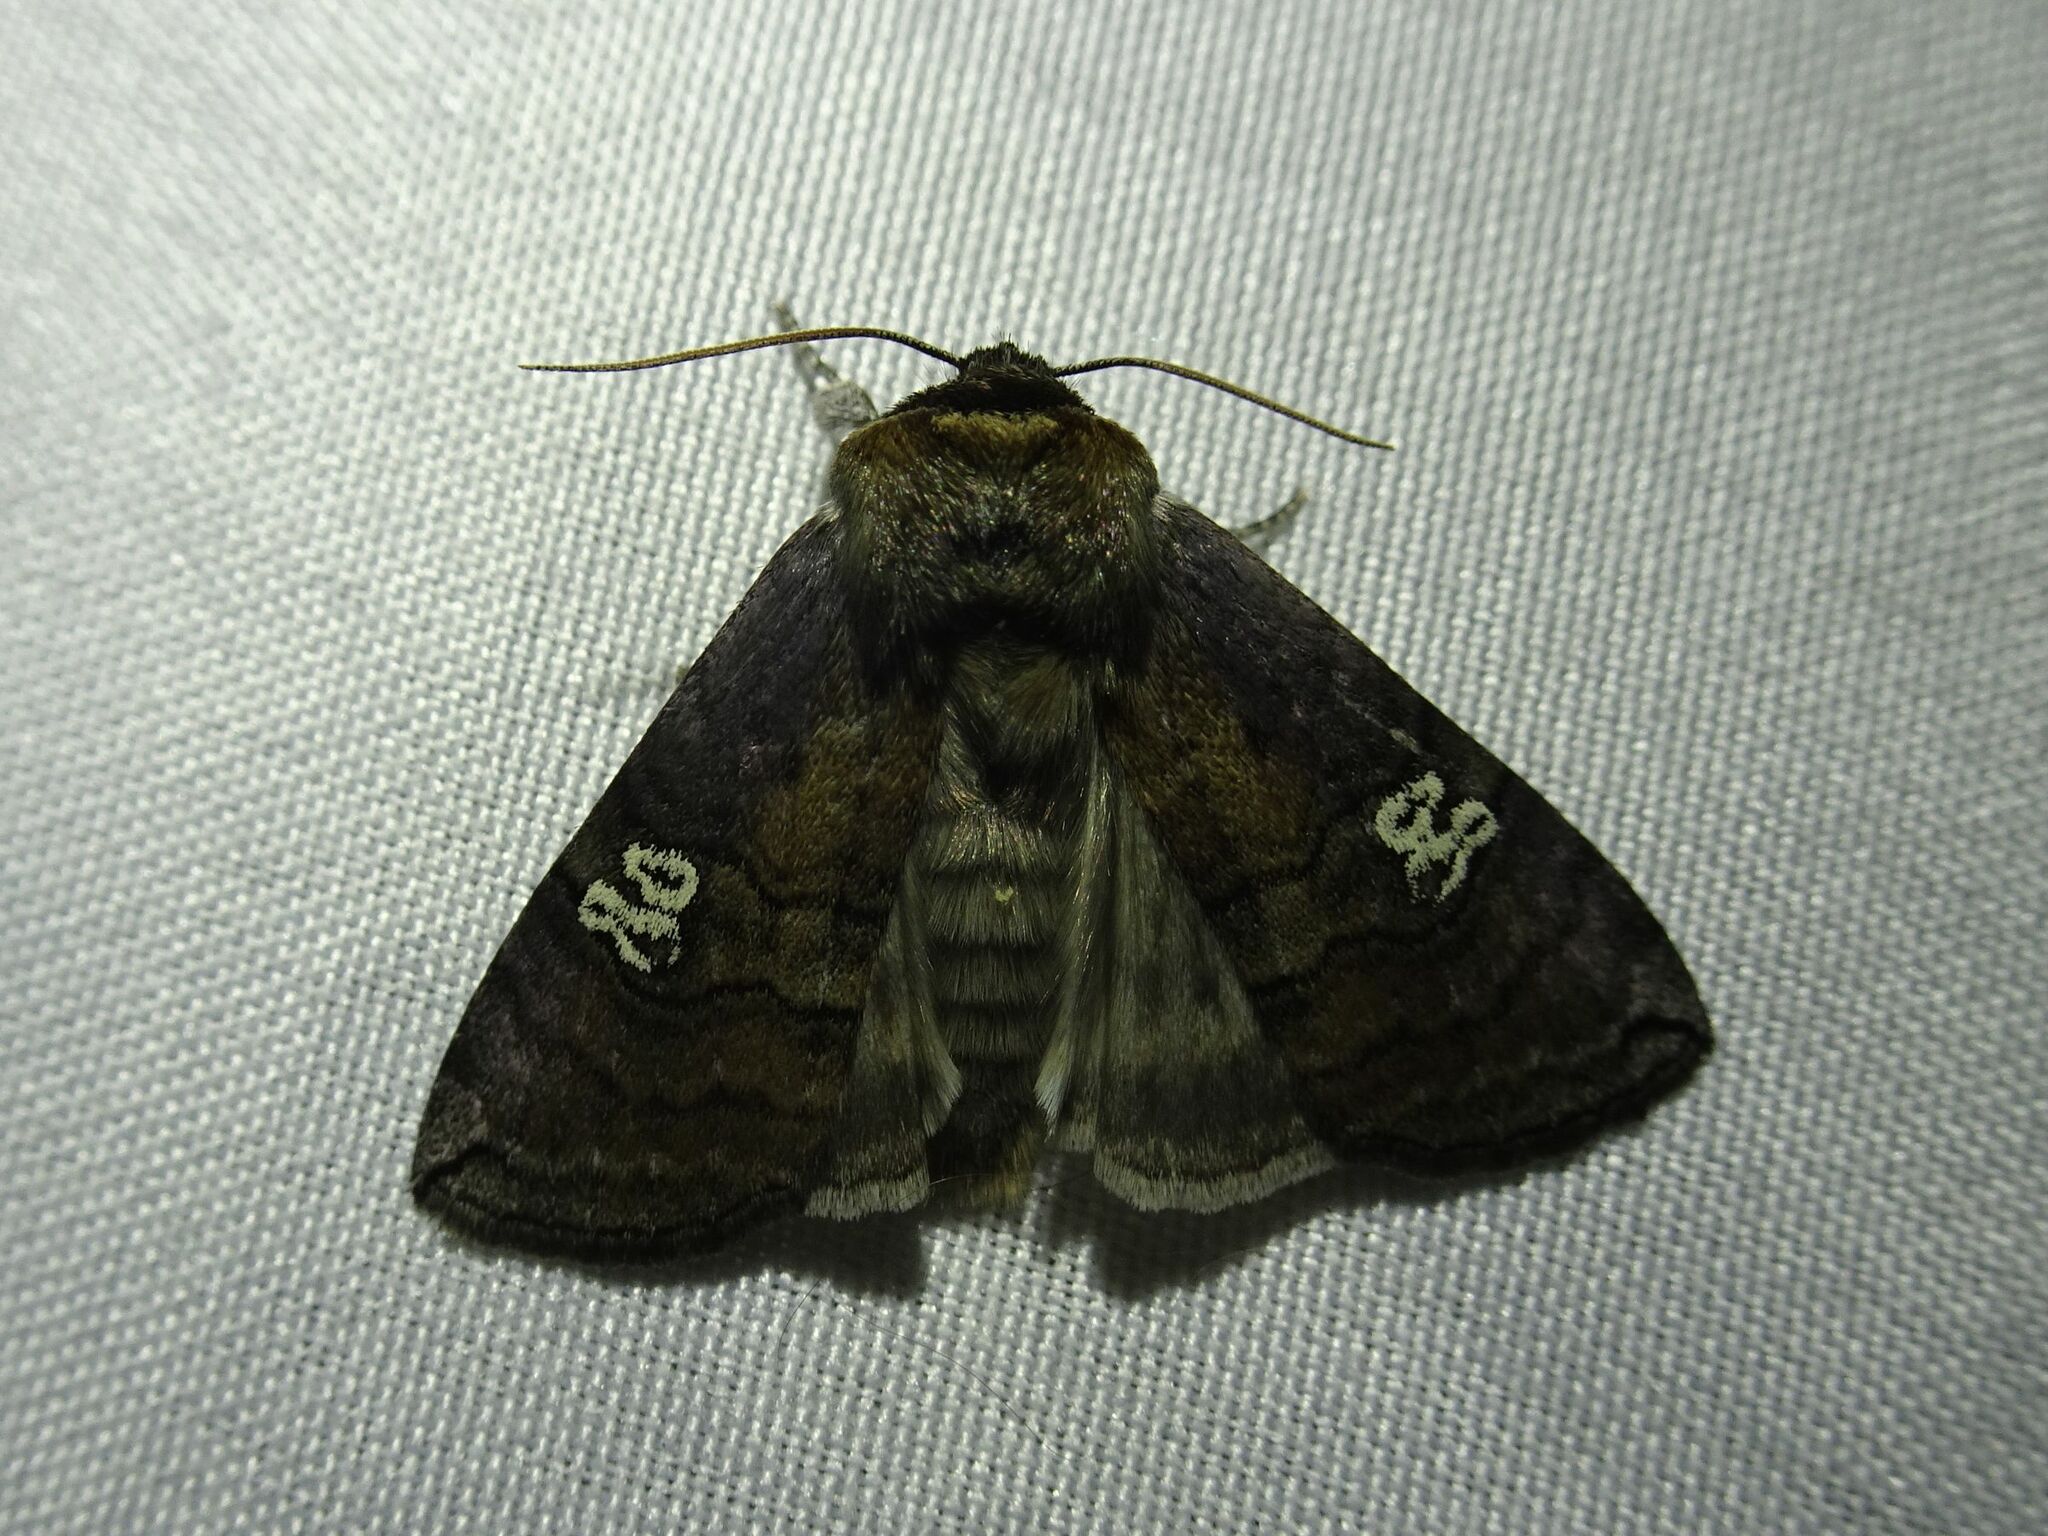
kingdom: Animalia
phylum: Arthropoda
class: Insecta
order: Lepidoptera
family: Drepanidae
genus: Tethea
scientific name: Tethea ocularis
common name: Figure of eighty
